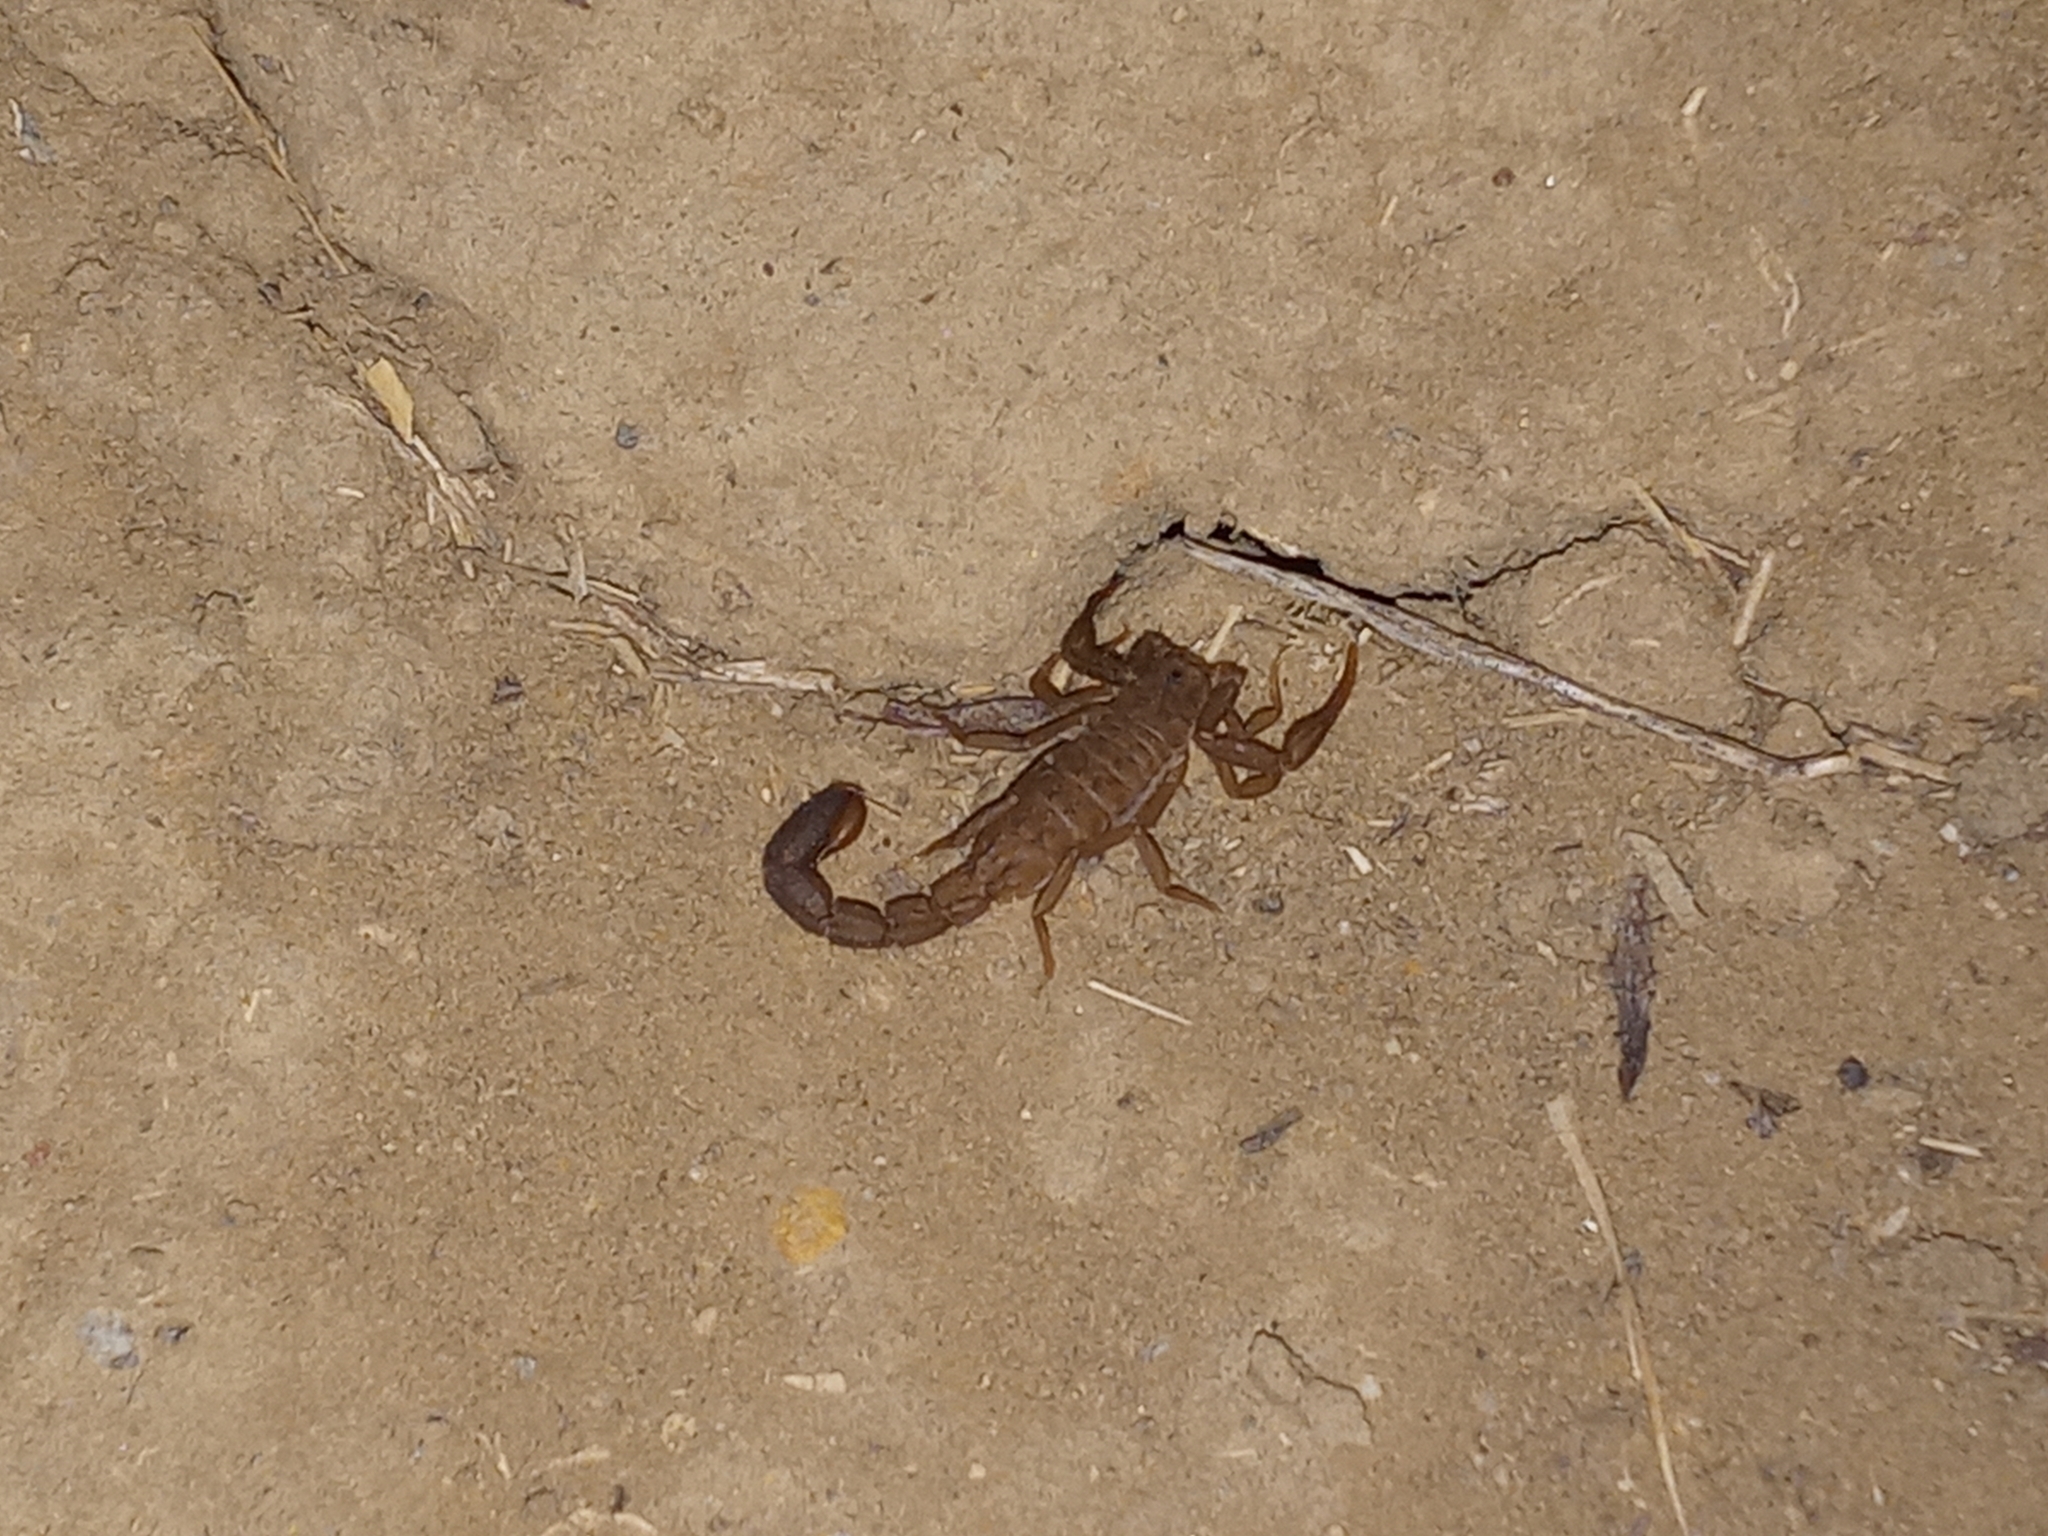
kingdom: Animalia
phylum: Arthropoda
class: Arachnida
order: Scorpiones
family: Vaejovidae
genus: Serradigitus
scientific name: Serradigitus gertschi
